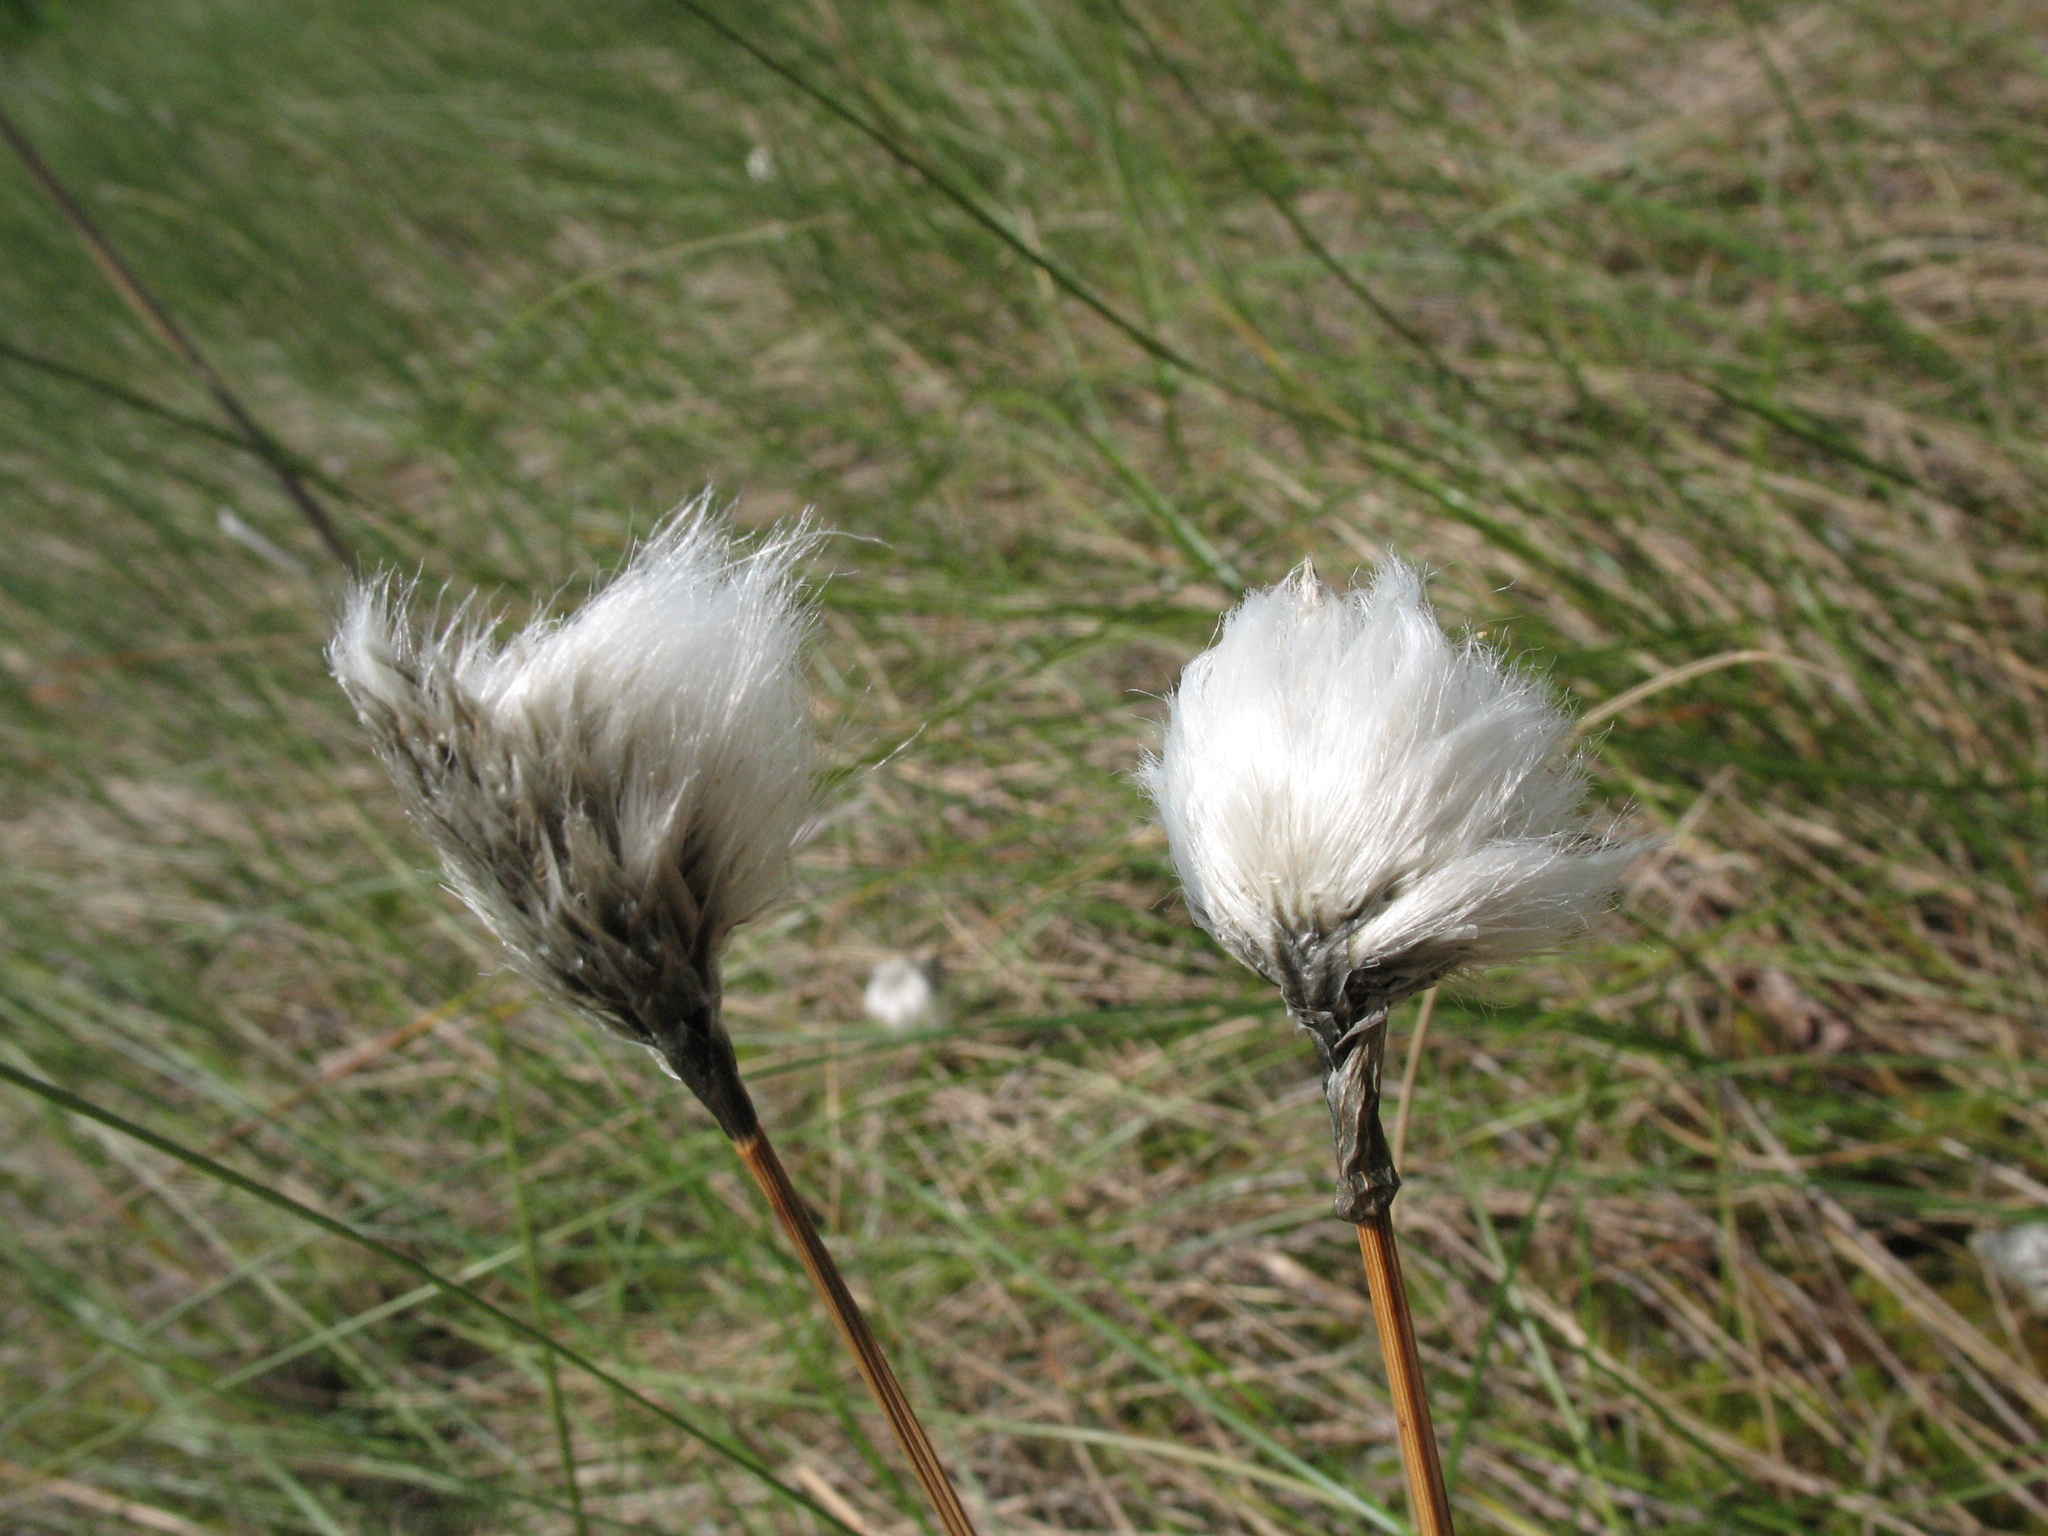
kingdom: Plantae
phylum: Tracheophyta
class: Liliopsida
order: Poales
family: Cyperaceae
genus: Eriophorum
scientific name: Eriophorum vaginatum
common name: Hare's-tail cottongrass
